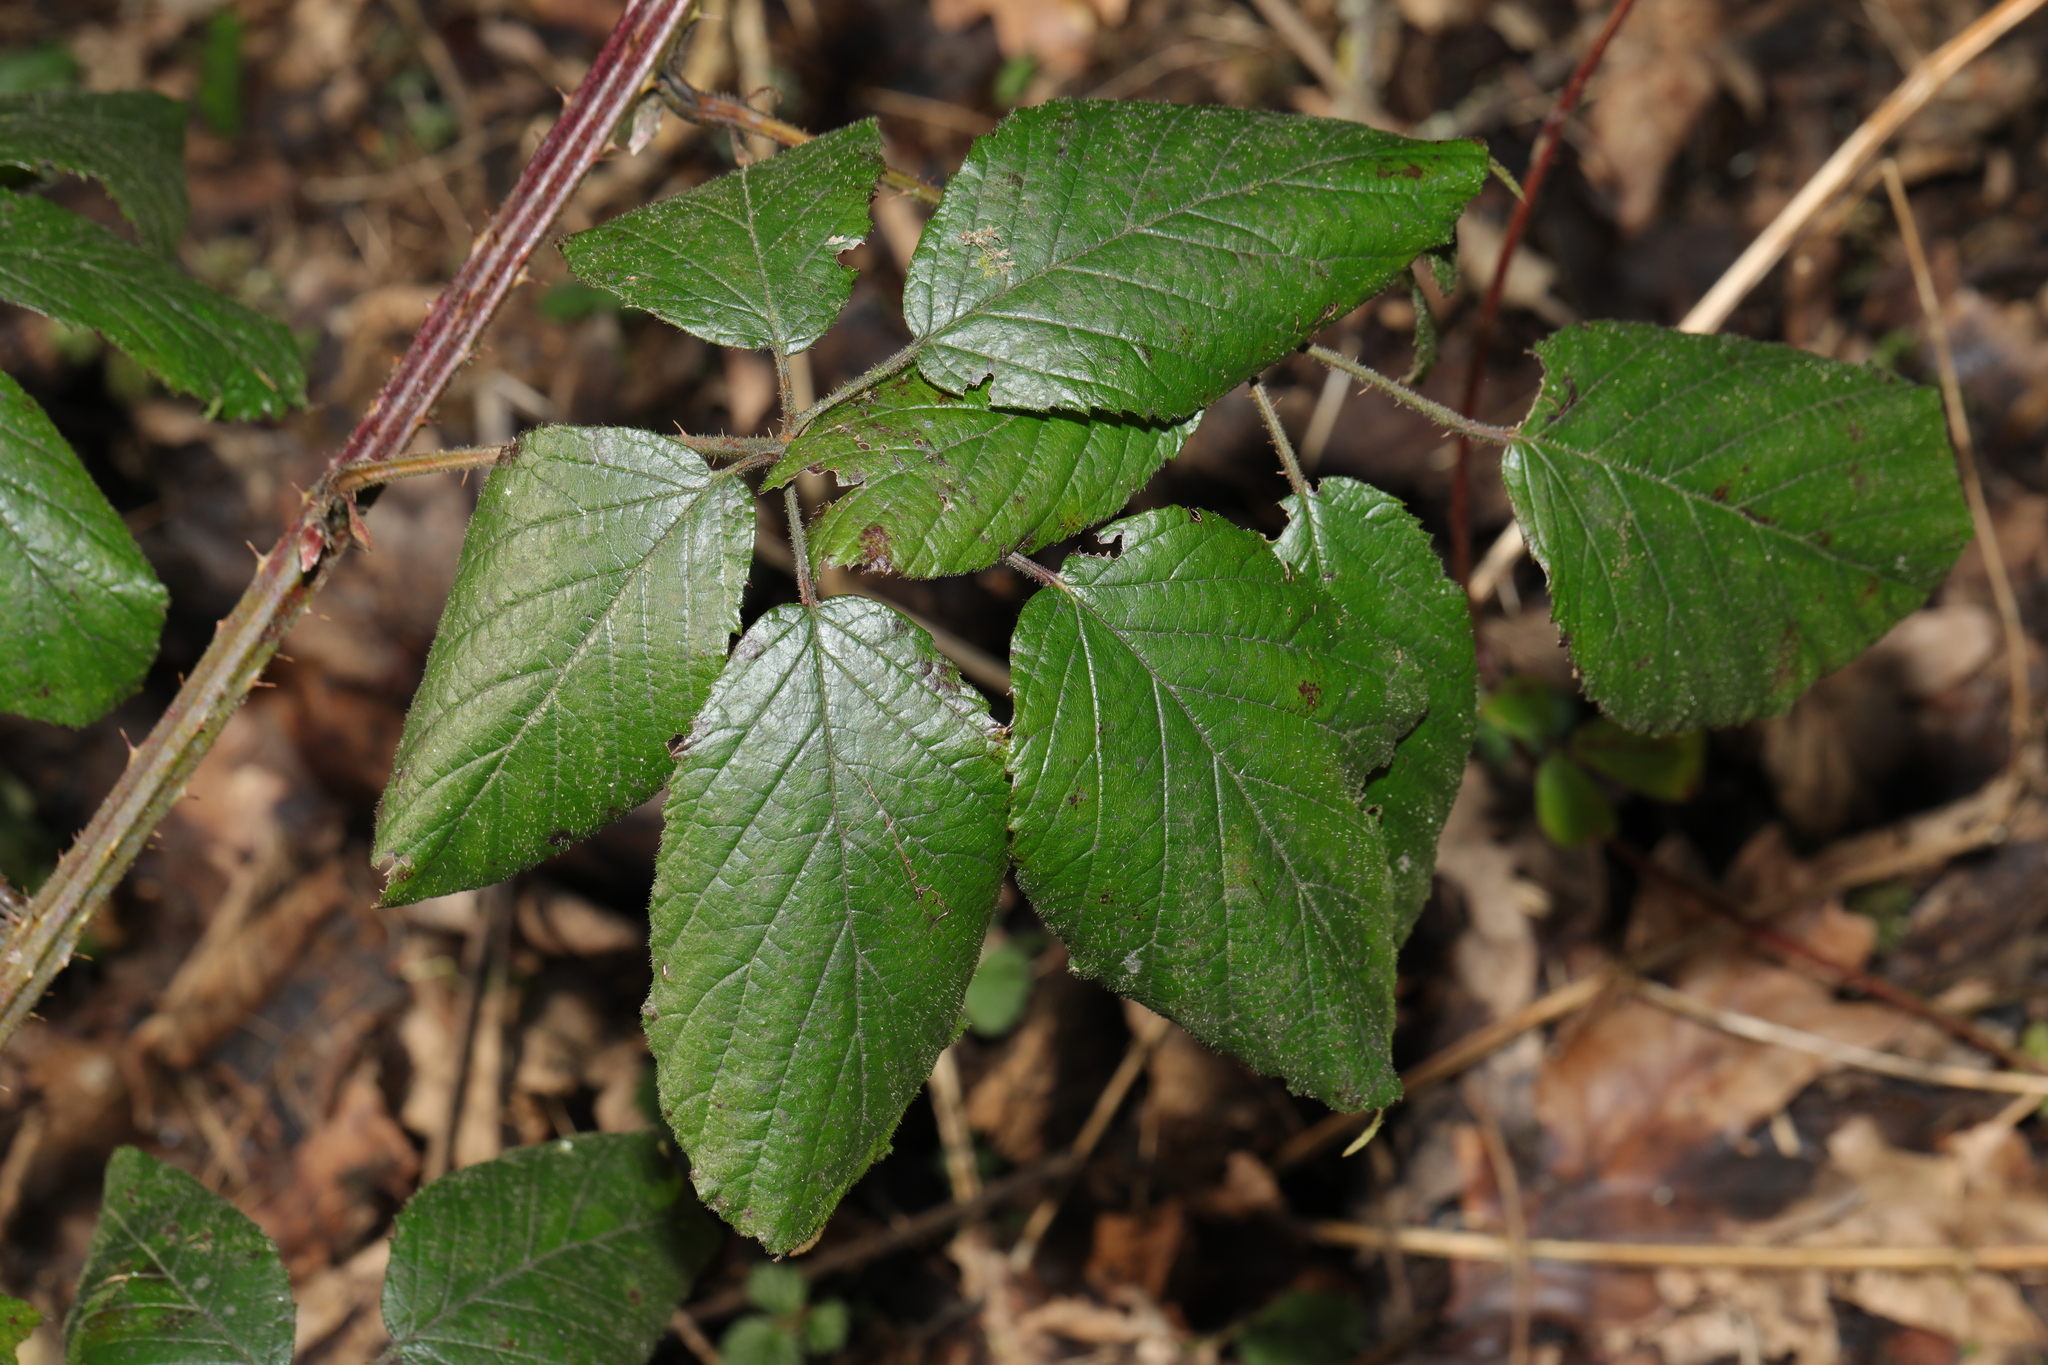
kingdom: Plantae
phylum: Tracheophyta
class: Magnoliopsida
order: Rosales
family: Rosaceae
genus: Rubus
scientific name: Rubus rufescens
